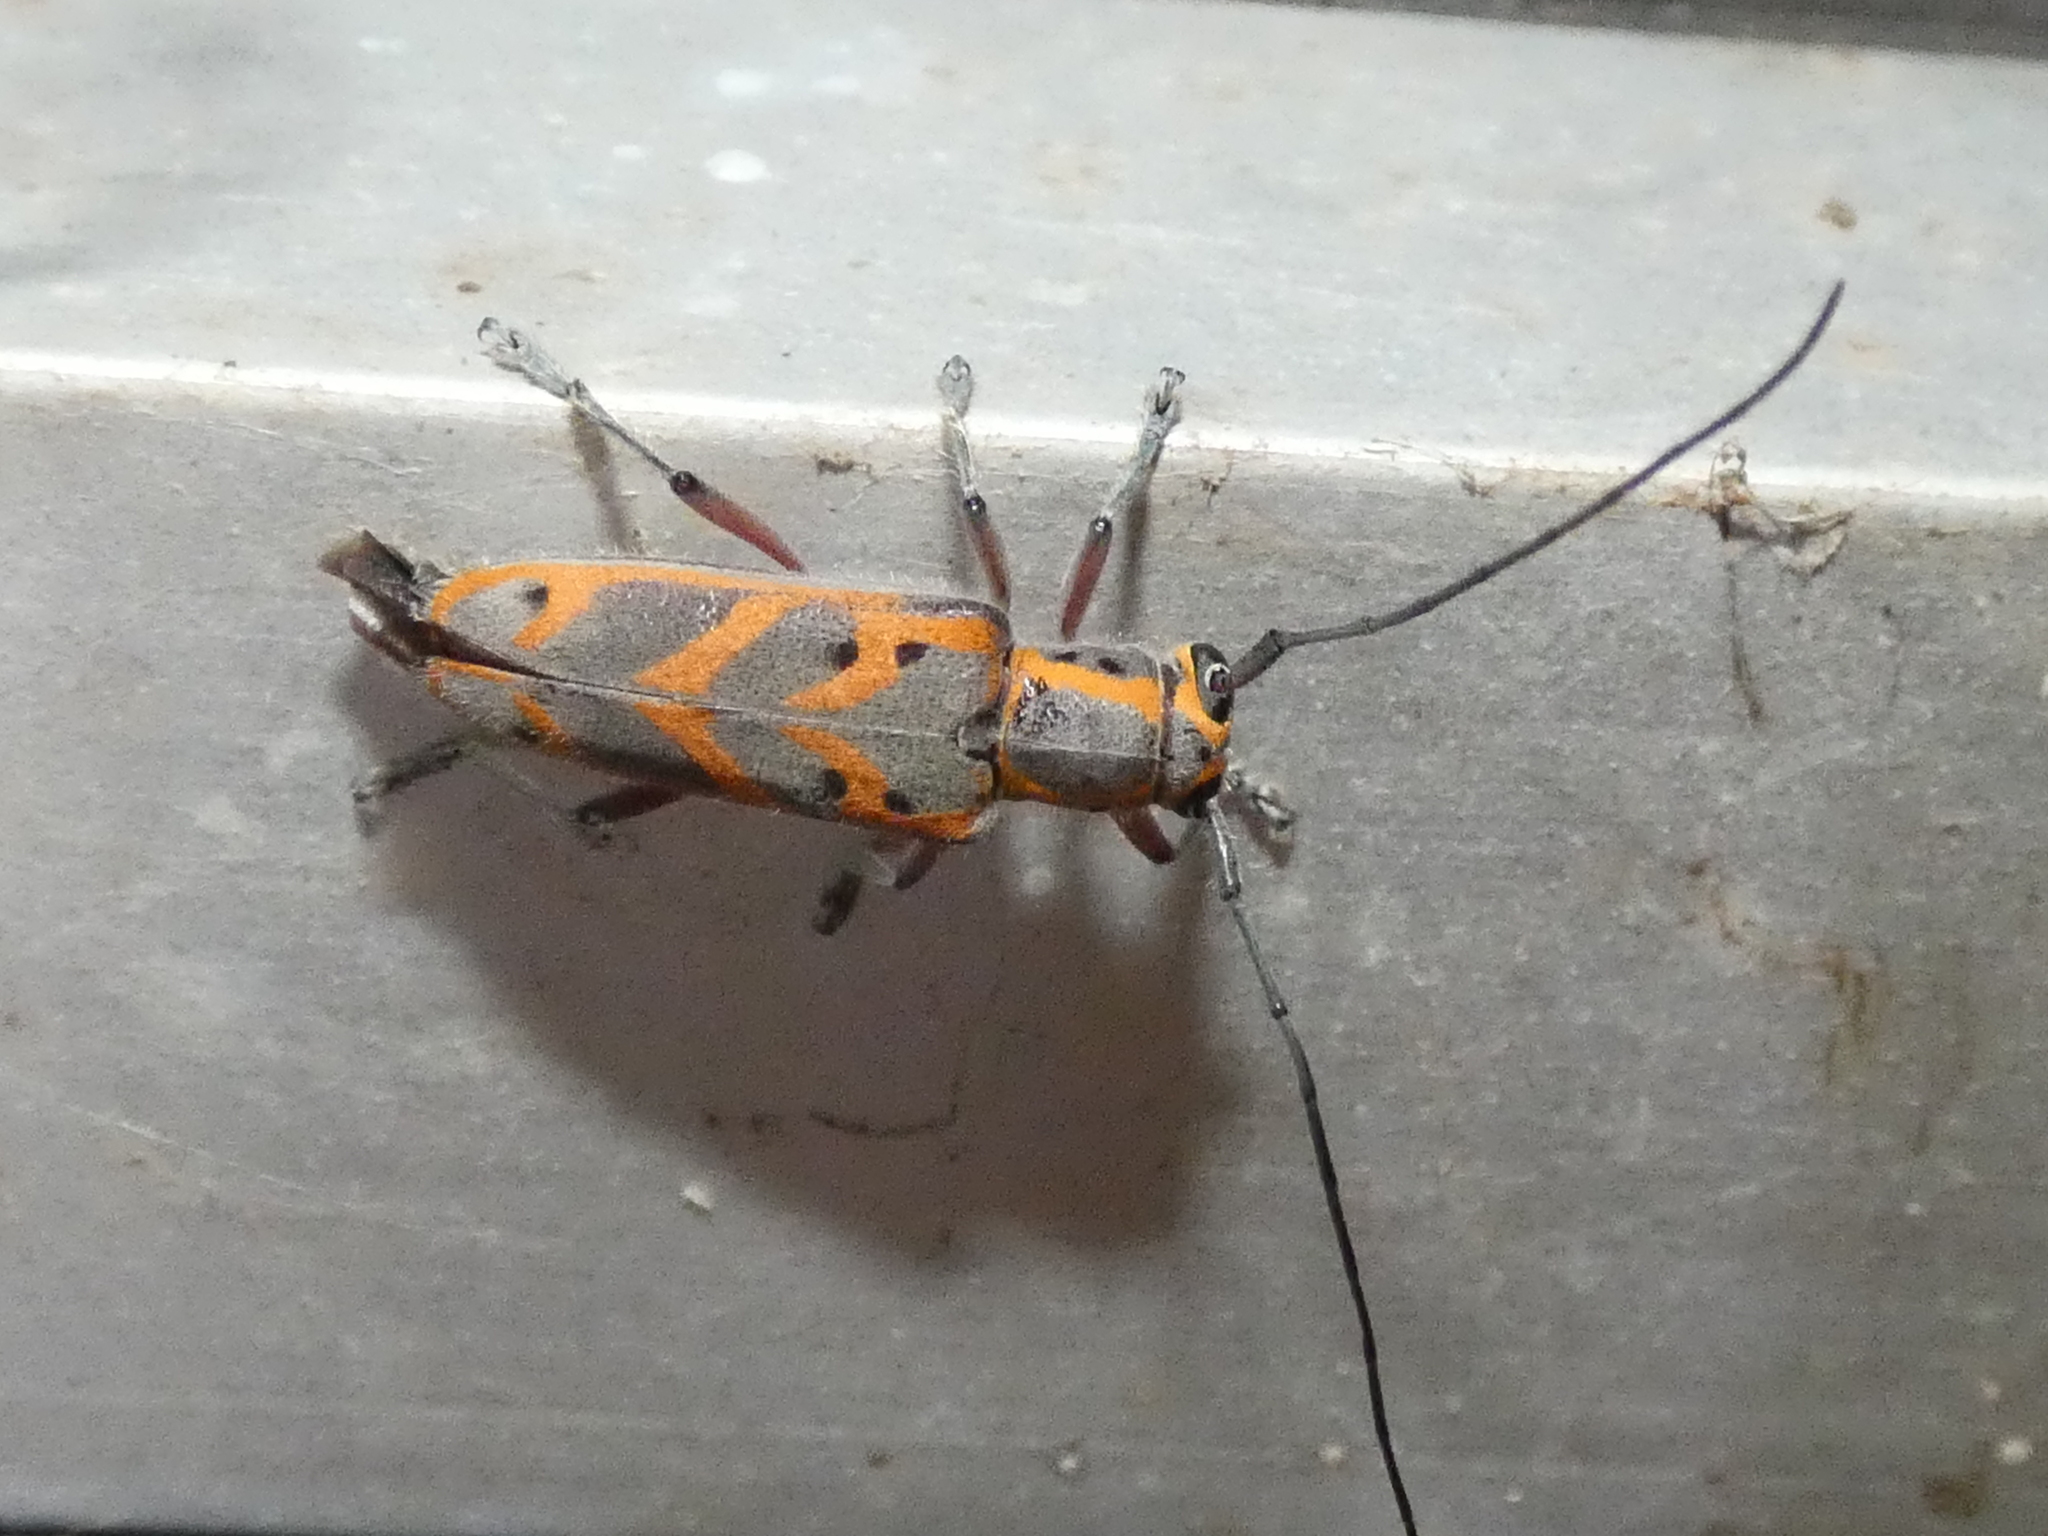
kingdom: Animalia
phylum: Arthropoda
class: Insecta
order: Coleoptera
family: Cerambycidae
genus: Saperda
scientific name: Saperda tridentata
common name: Elm borer
